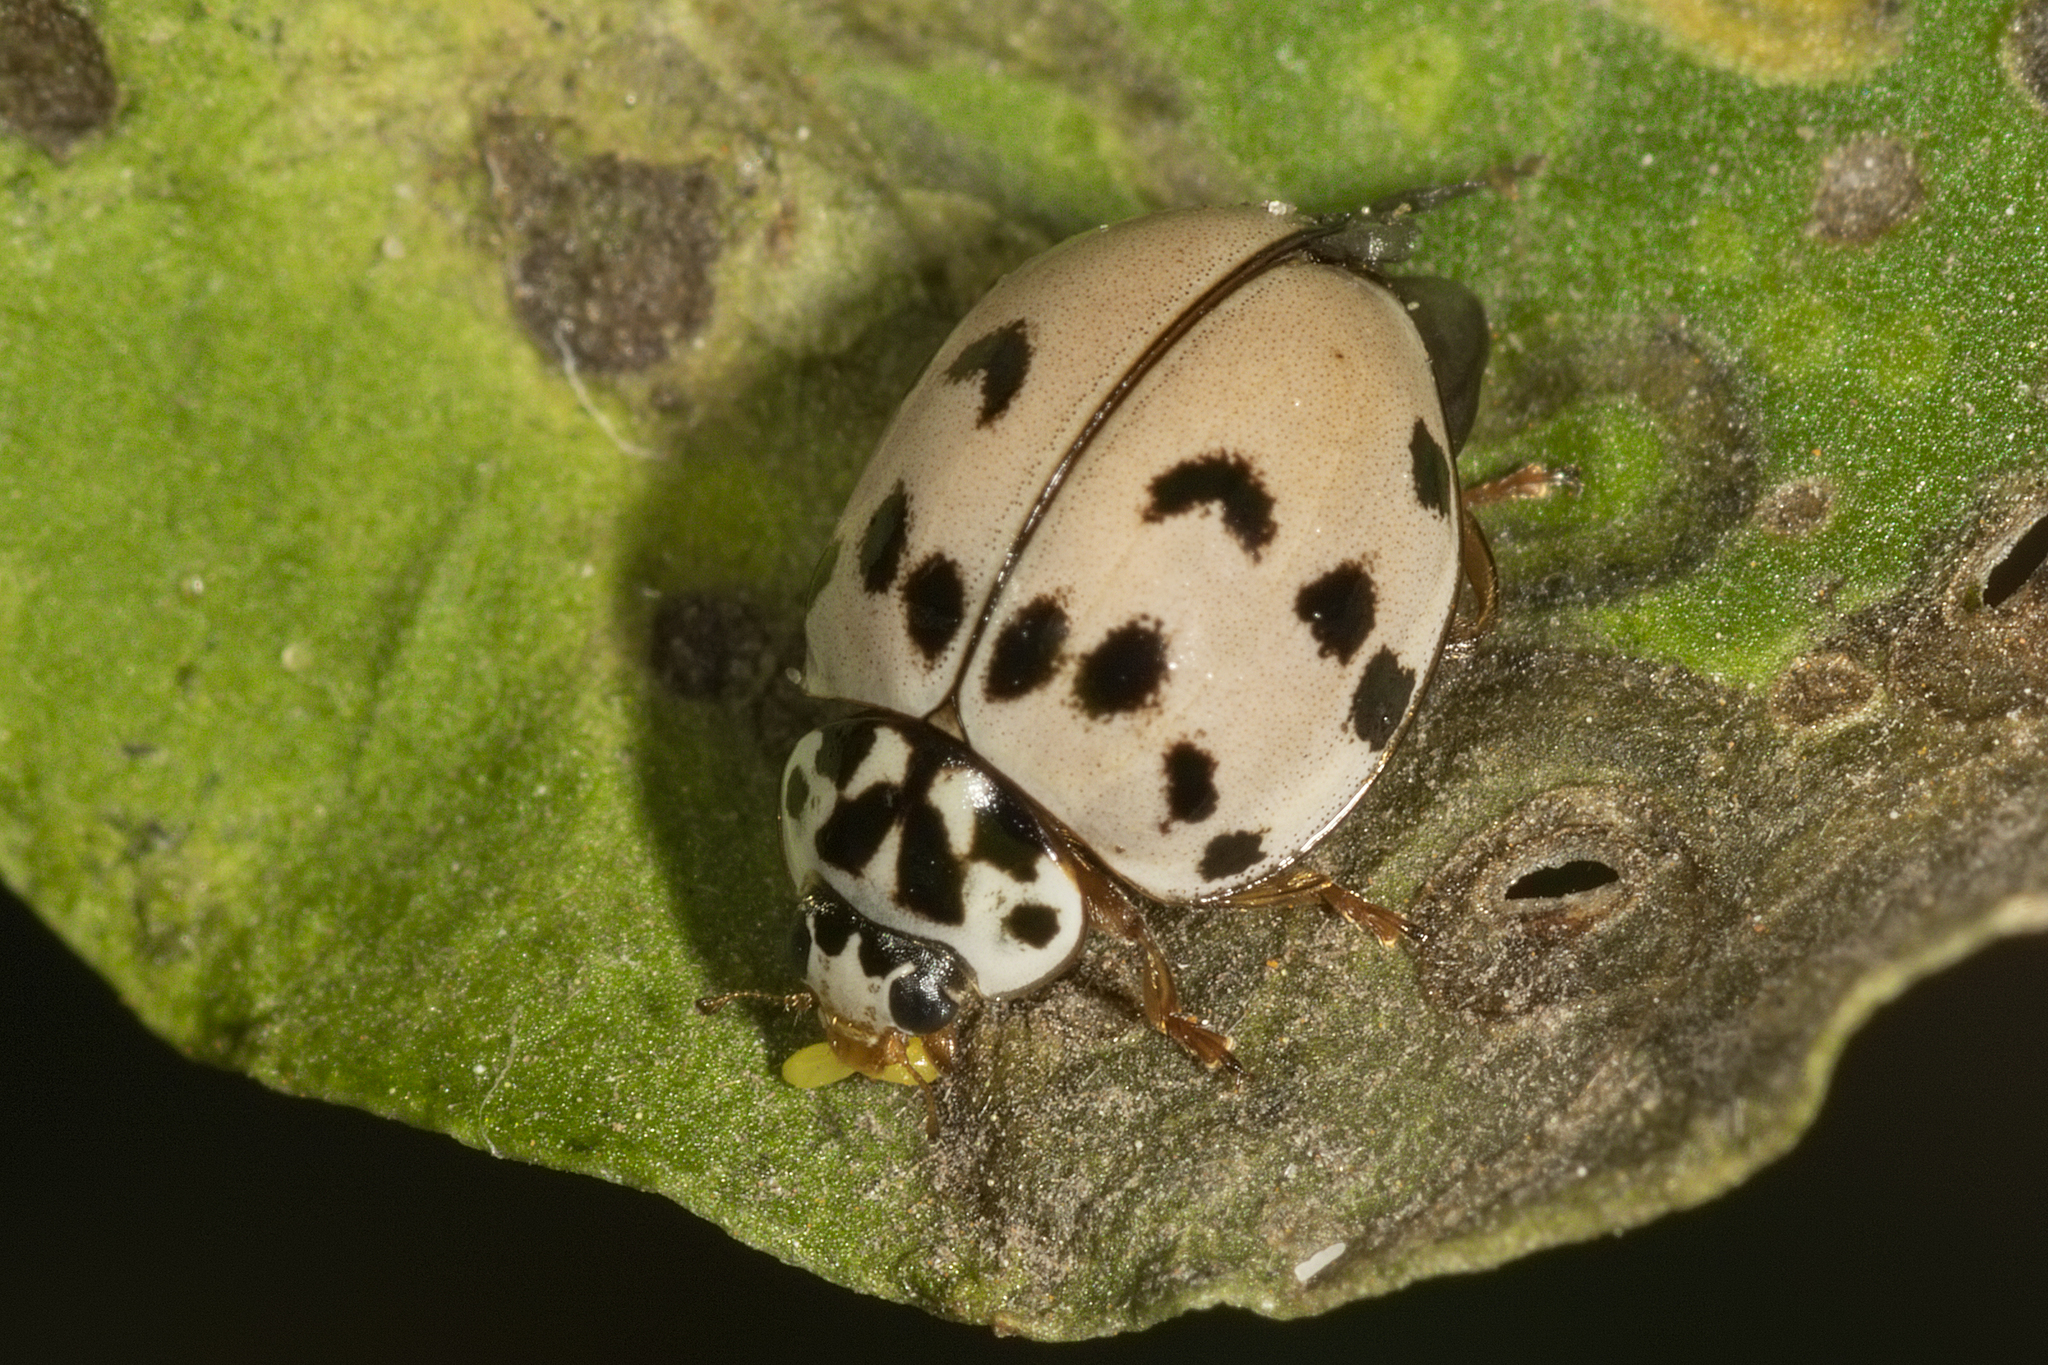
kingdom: Animalia
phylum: Arthropoda
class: Insecta
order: Coleoptera
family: Coccinellidae
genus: Olla
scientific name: Olla v-nigrum
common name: Ashy gray lady beetle
